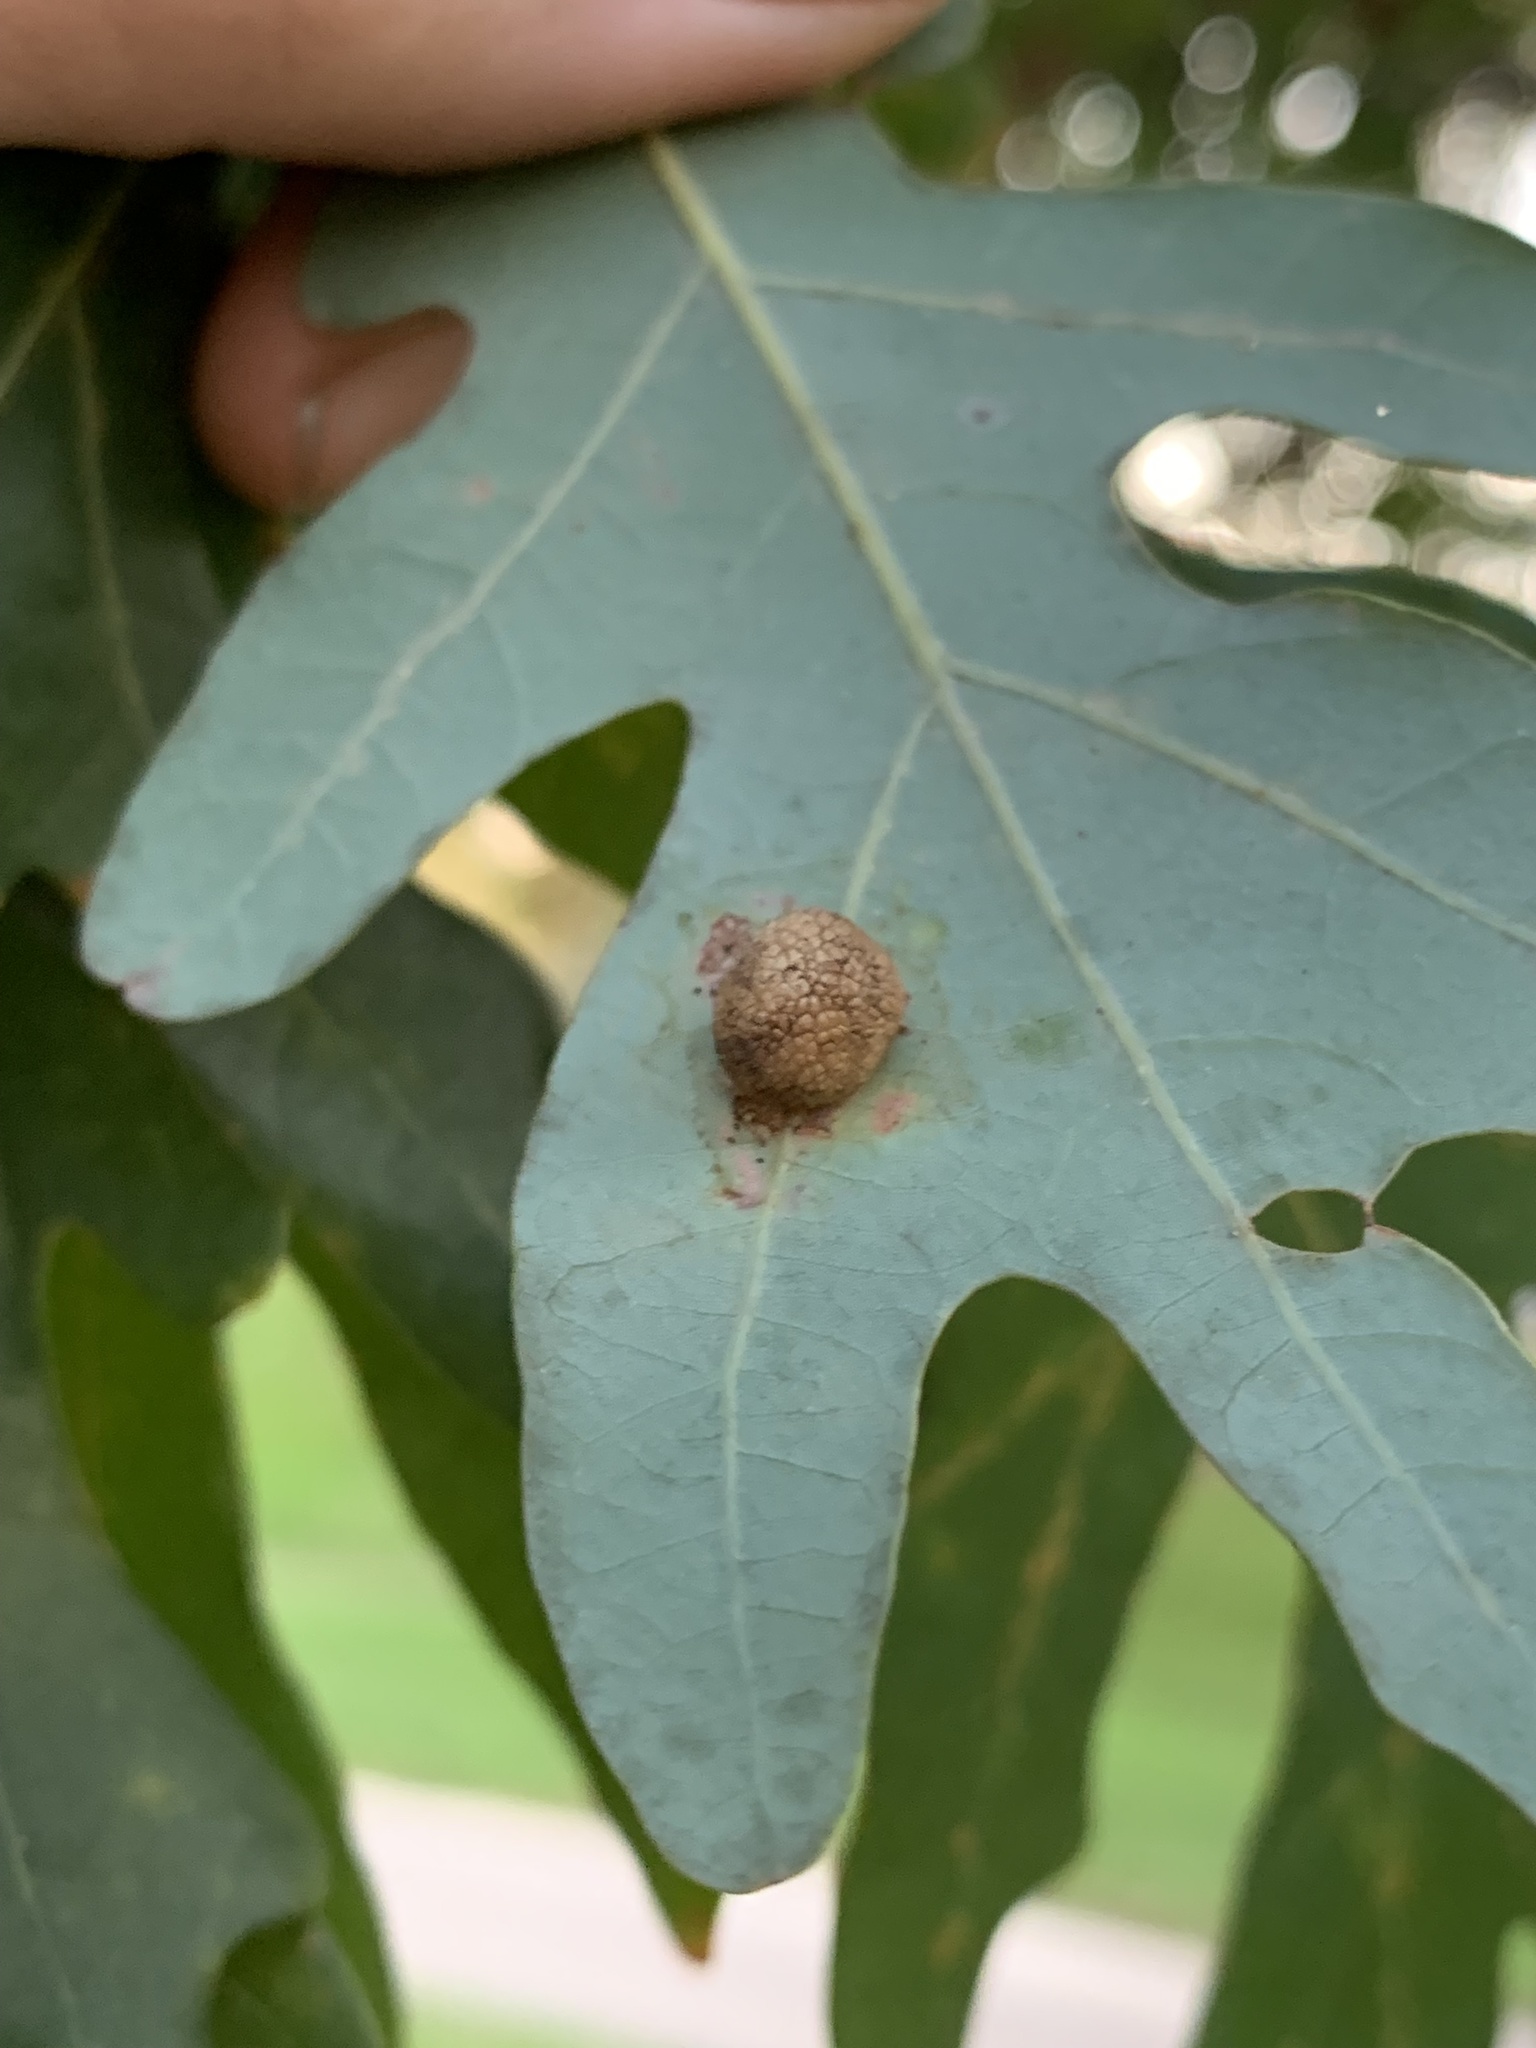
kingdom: Animalia
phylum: Arthropoda
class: Insecta
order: Hymenoptera
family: Cynipidae
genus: Acraspis
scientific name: Acraspis
